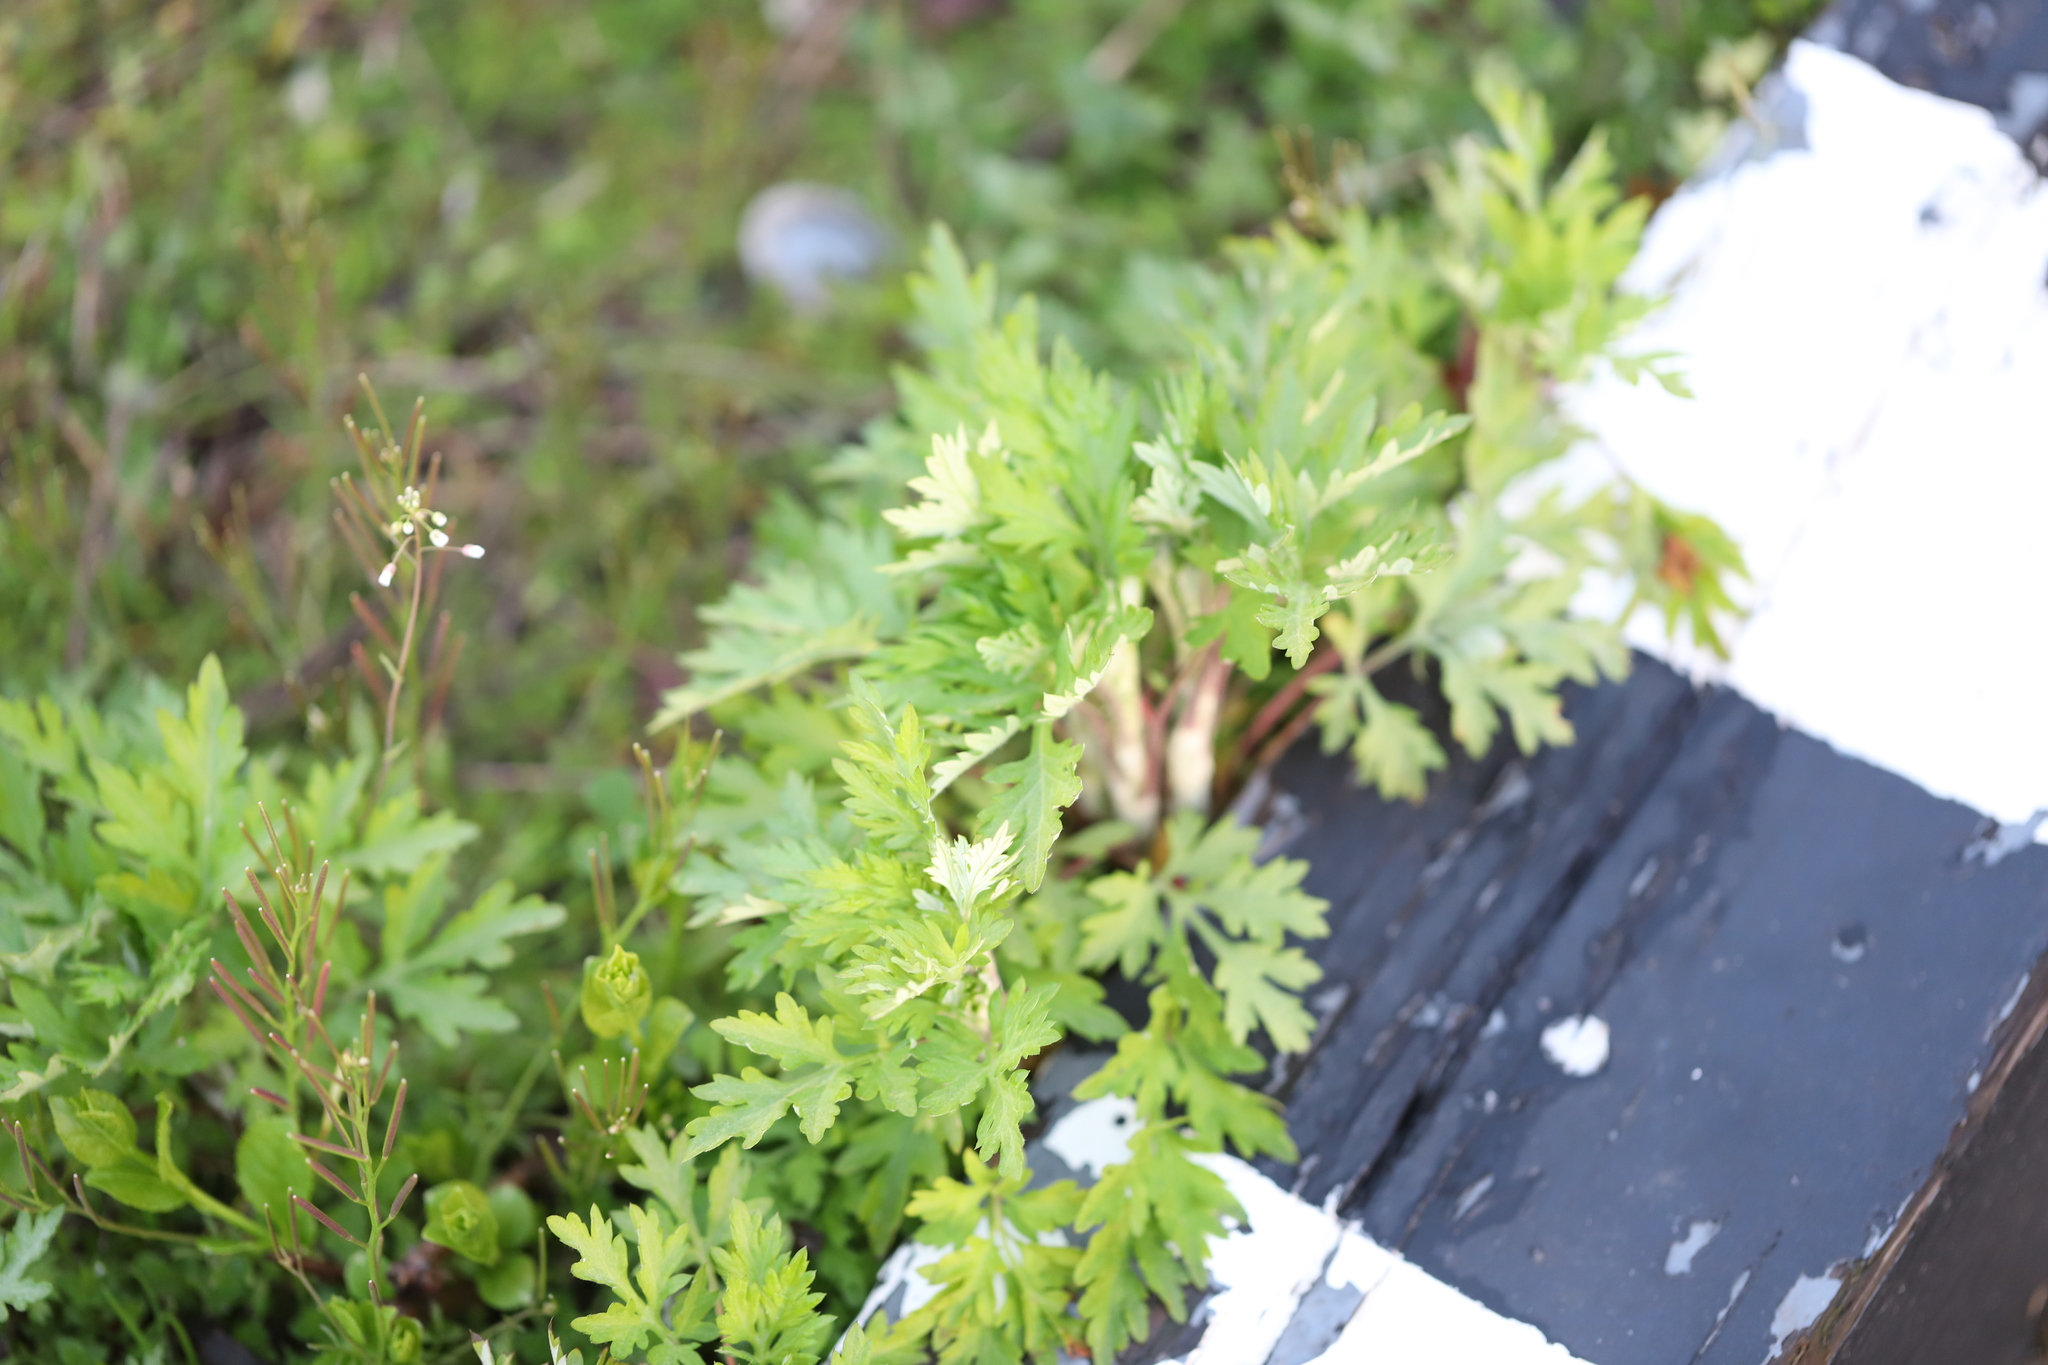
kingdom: Plantae
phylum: Tracheophyta
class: Magnoliopsida
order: Asterales
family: Asteraceae
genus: Artemisia
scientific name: Artemisia vulgaris
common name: Mugwort
